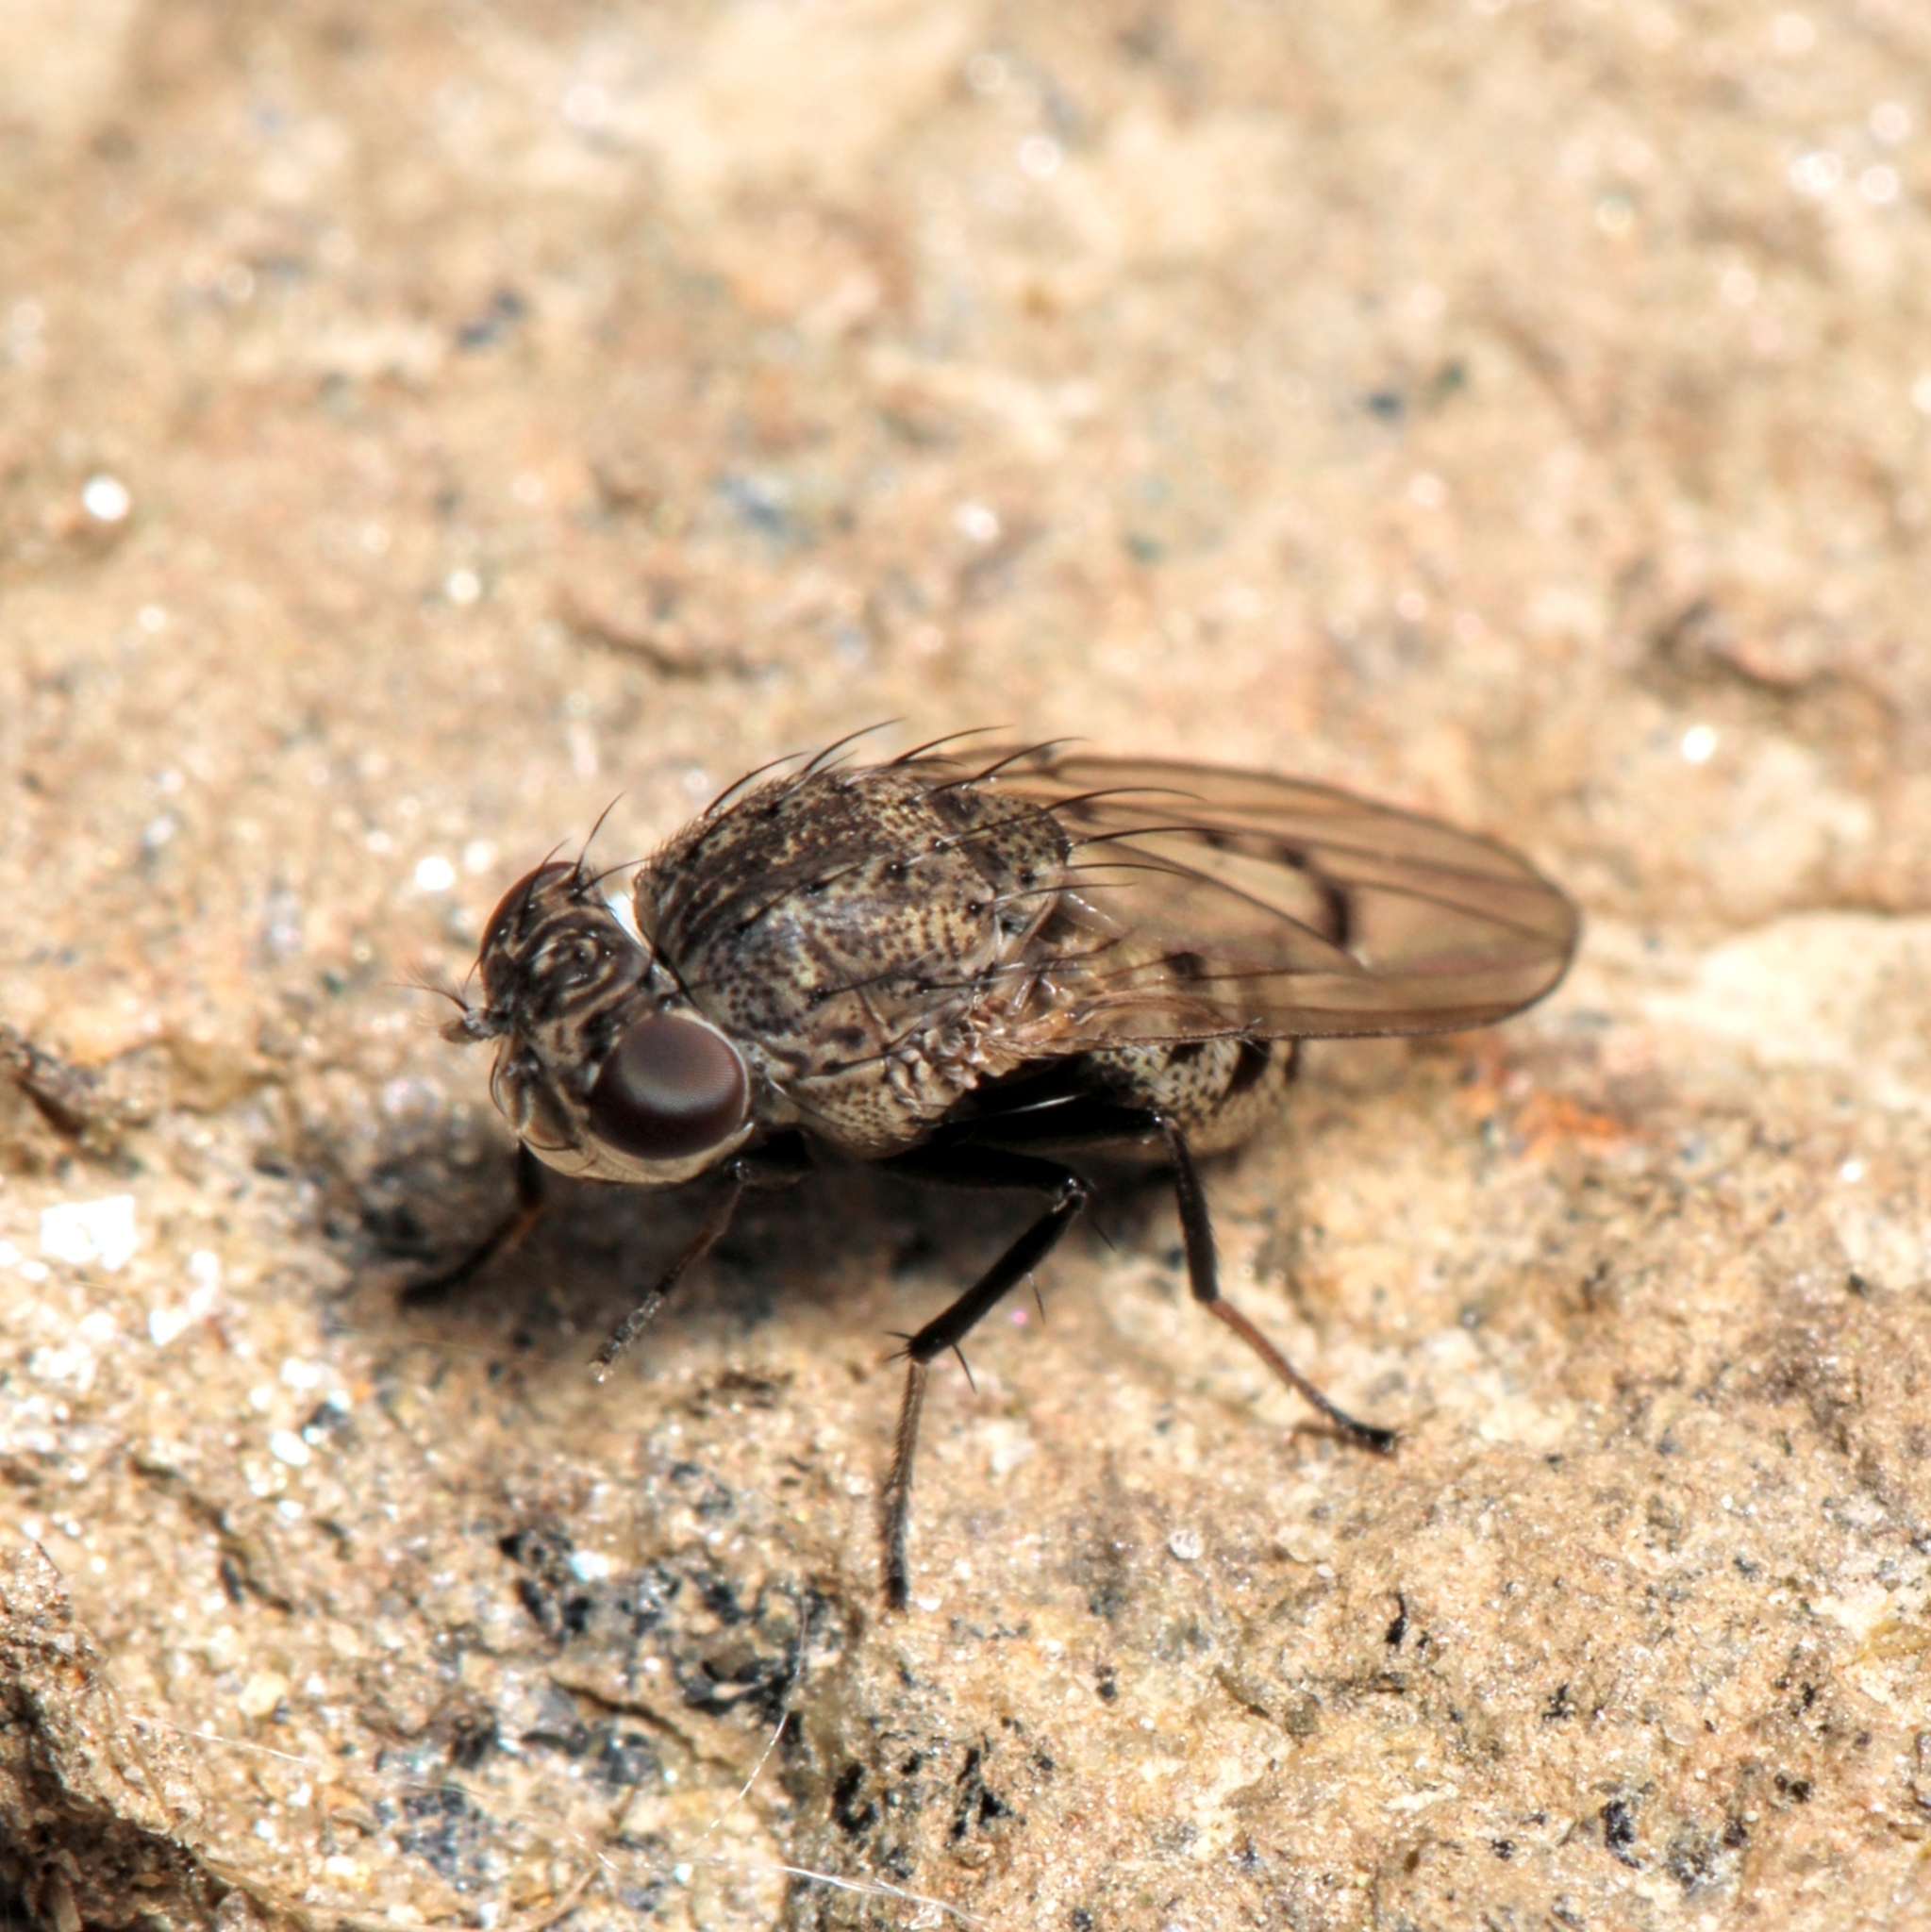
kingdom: Animalia
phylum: Arthropoda
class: Insecta
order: Diptera
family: Ephydridae
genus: Paralimna
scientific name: Paralimna punctipennis
